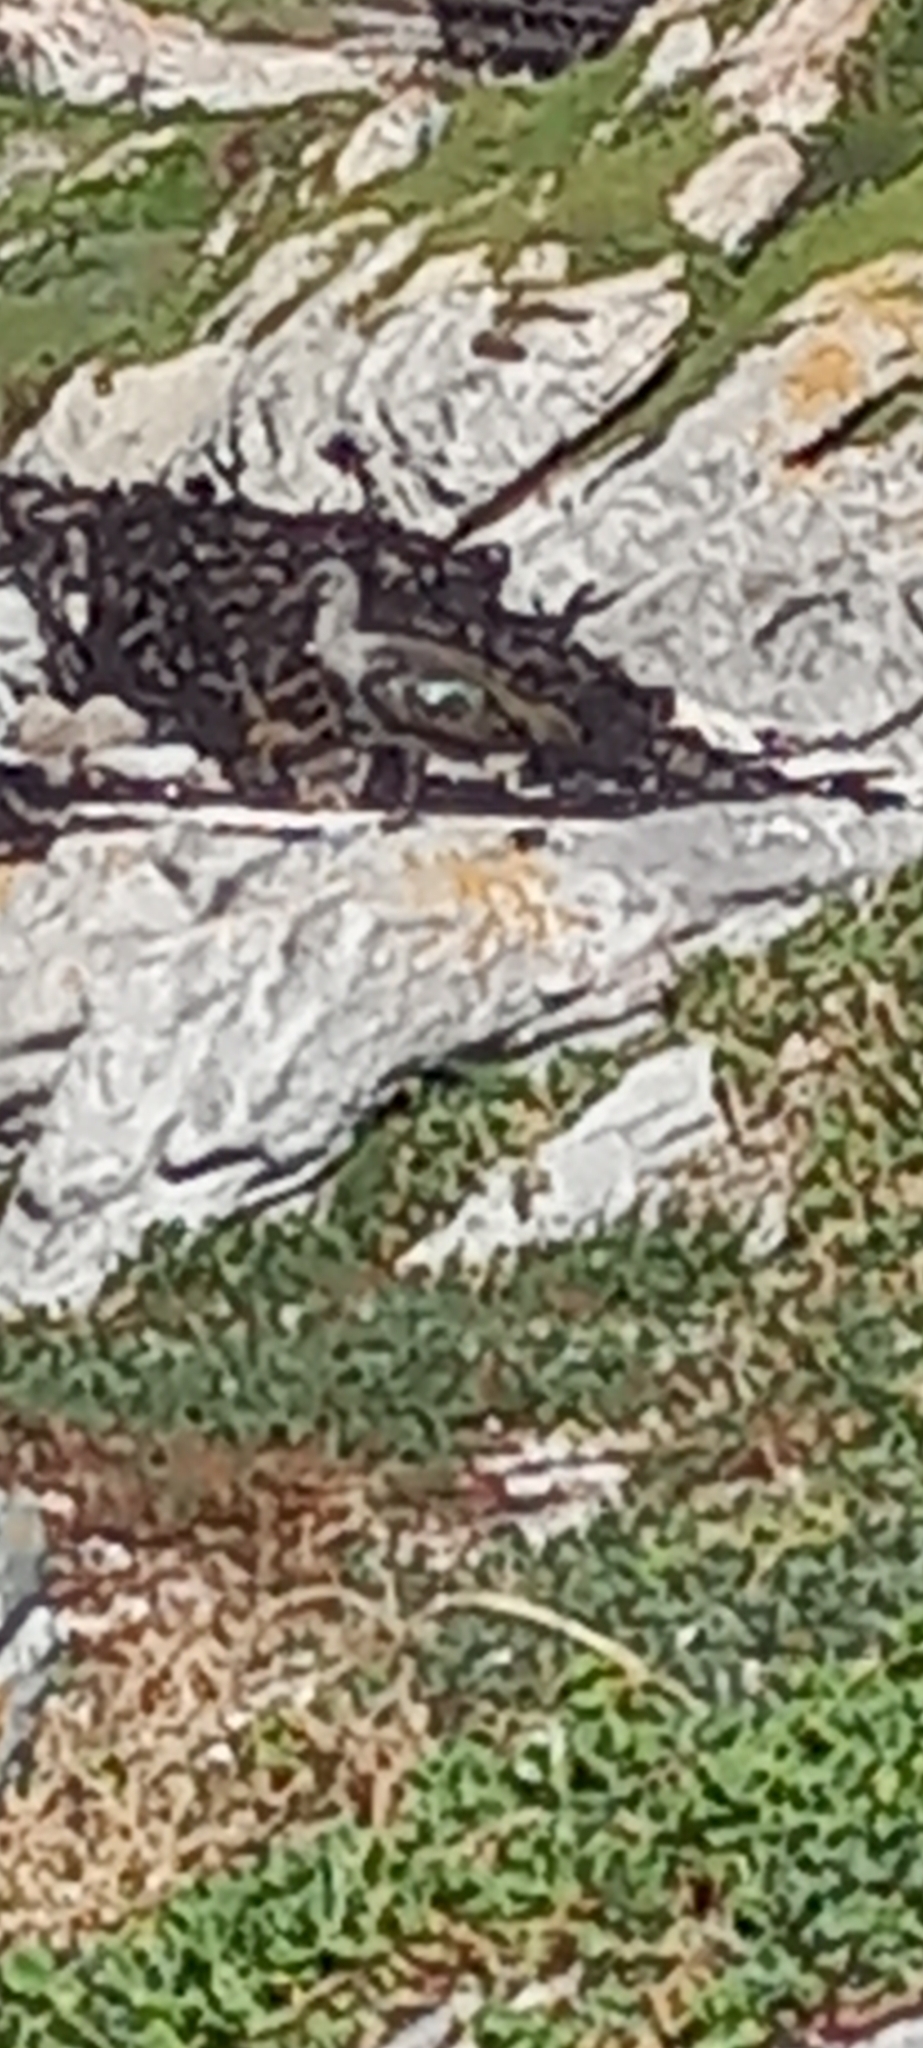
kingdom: Animalia
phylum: Chordata
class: Aves
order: Pelecaniformes
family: Threskiornithidae
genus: Bostrychia
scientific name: Bostrychia hagedash
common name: Hadada ibis
